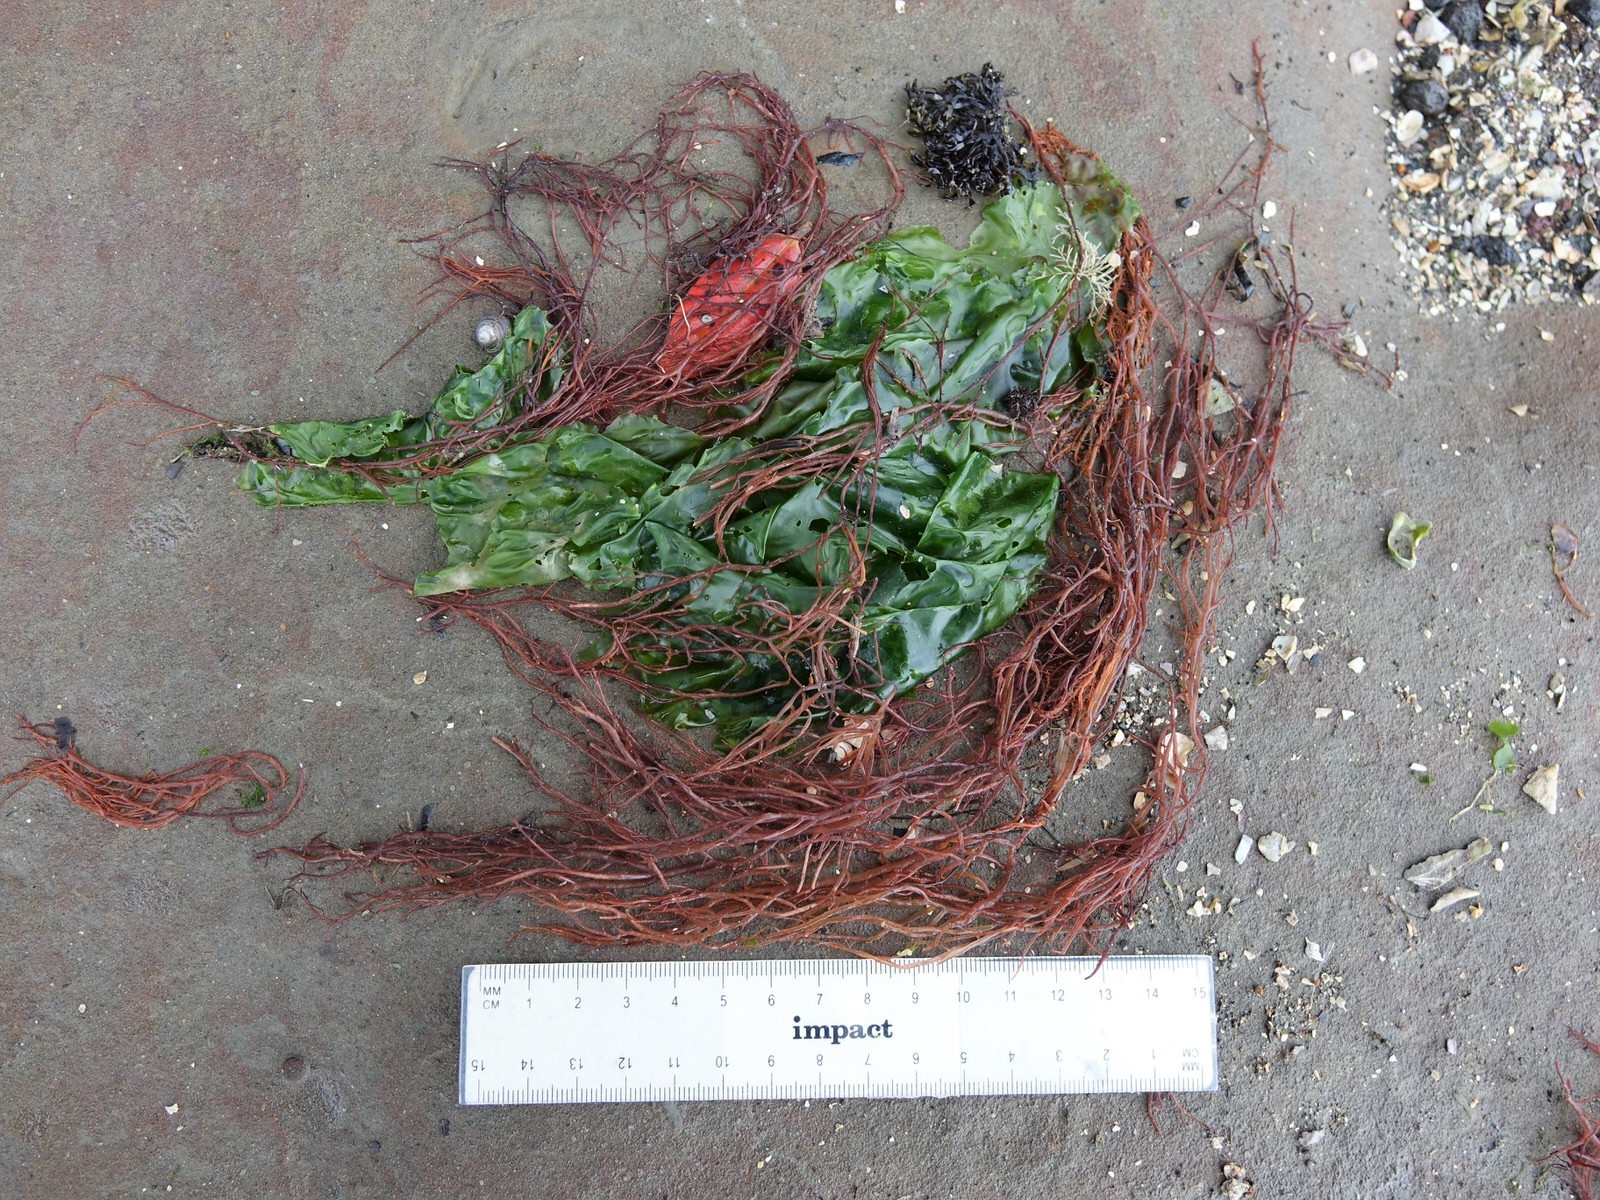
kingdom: Plantae
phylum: Rhodophyta
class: Florideophyceae
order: Gracilariales
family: Gracilariaceae
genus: Gracilaria
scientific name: Gracilaria chilensis
